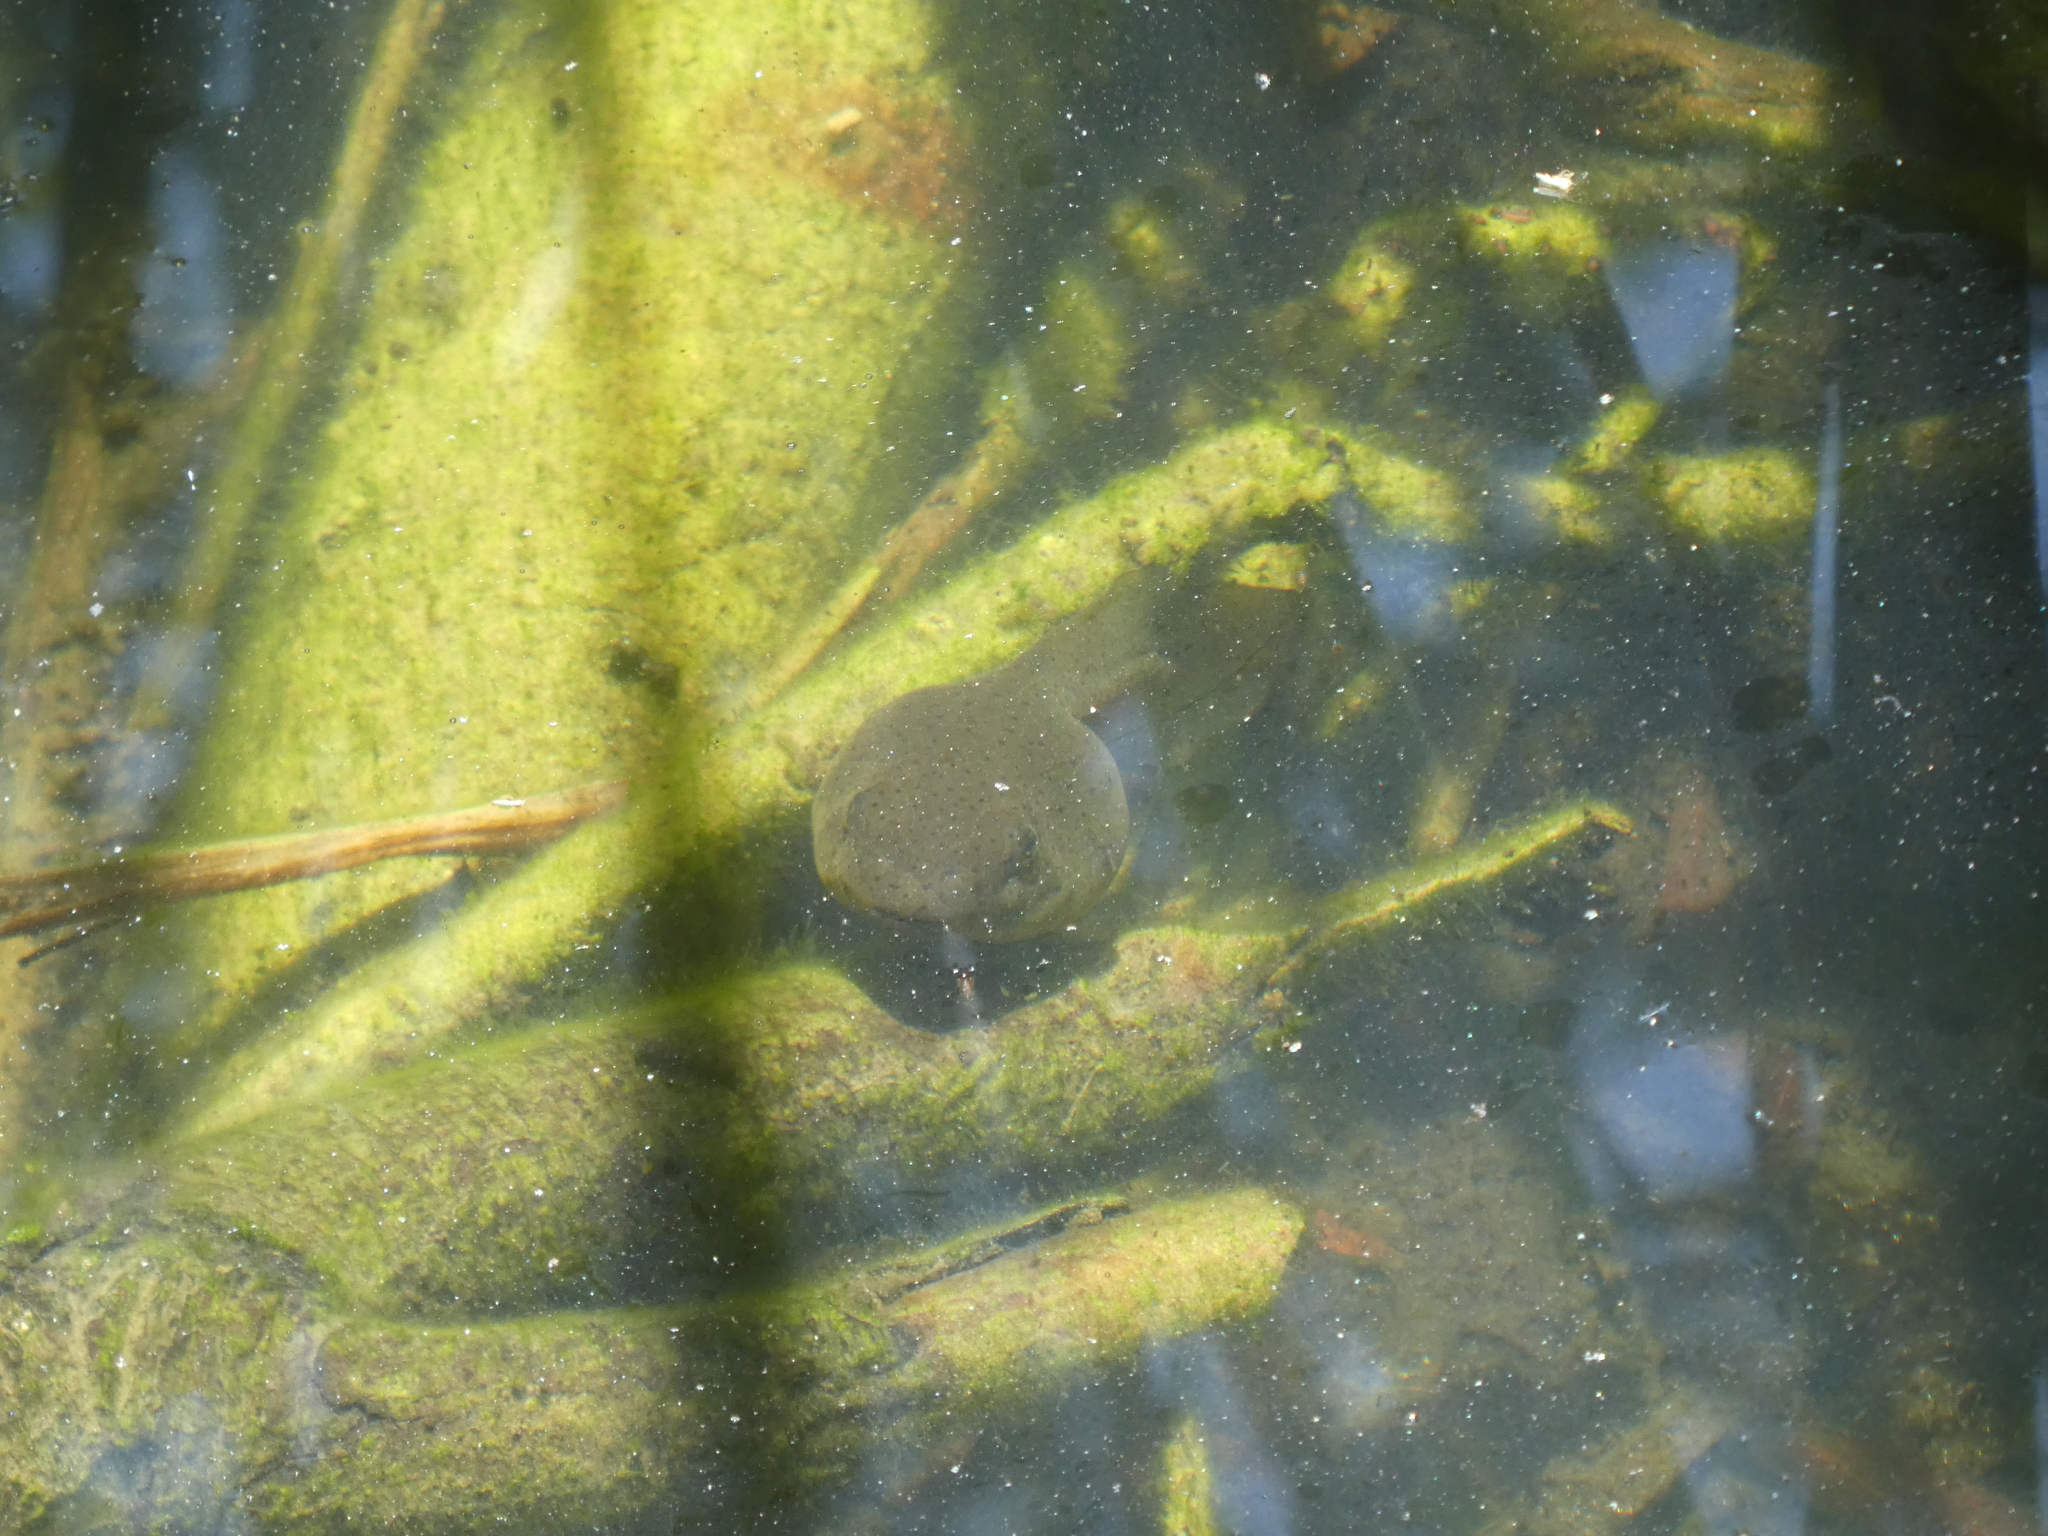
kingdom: Animalia
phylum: Chordata
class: Amphibia
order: Anura
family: Ranidae
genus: Lithobates
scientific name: Lithobates catesbeianus
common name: American bullfrog
